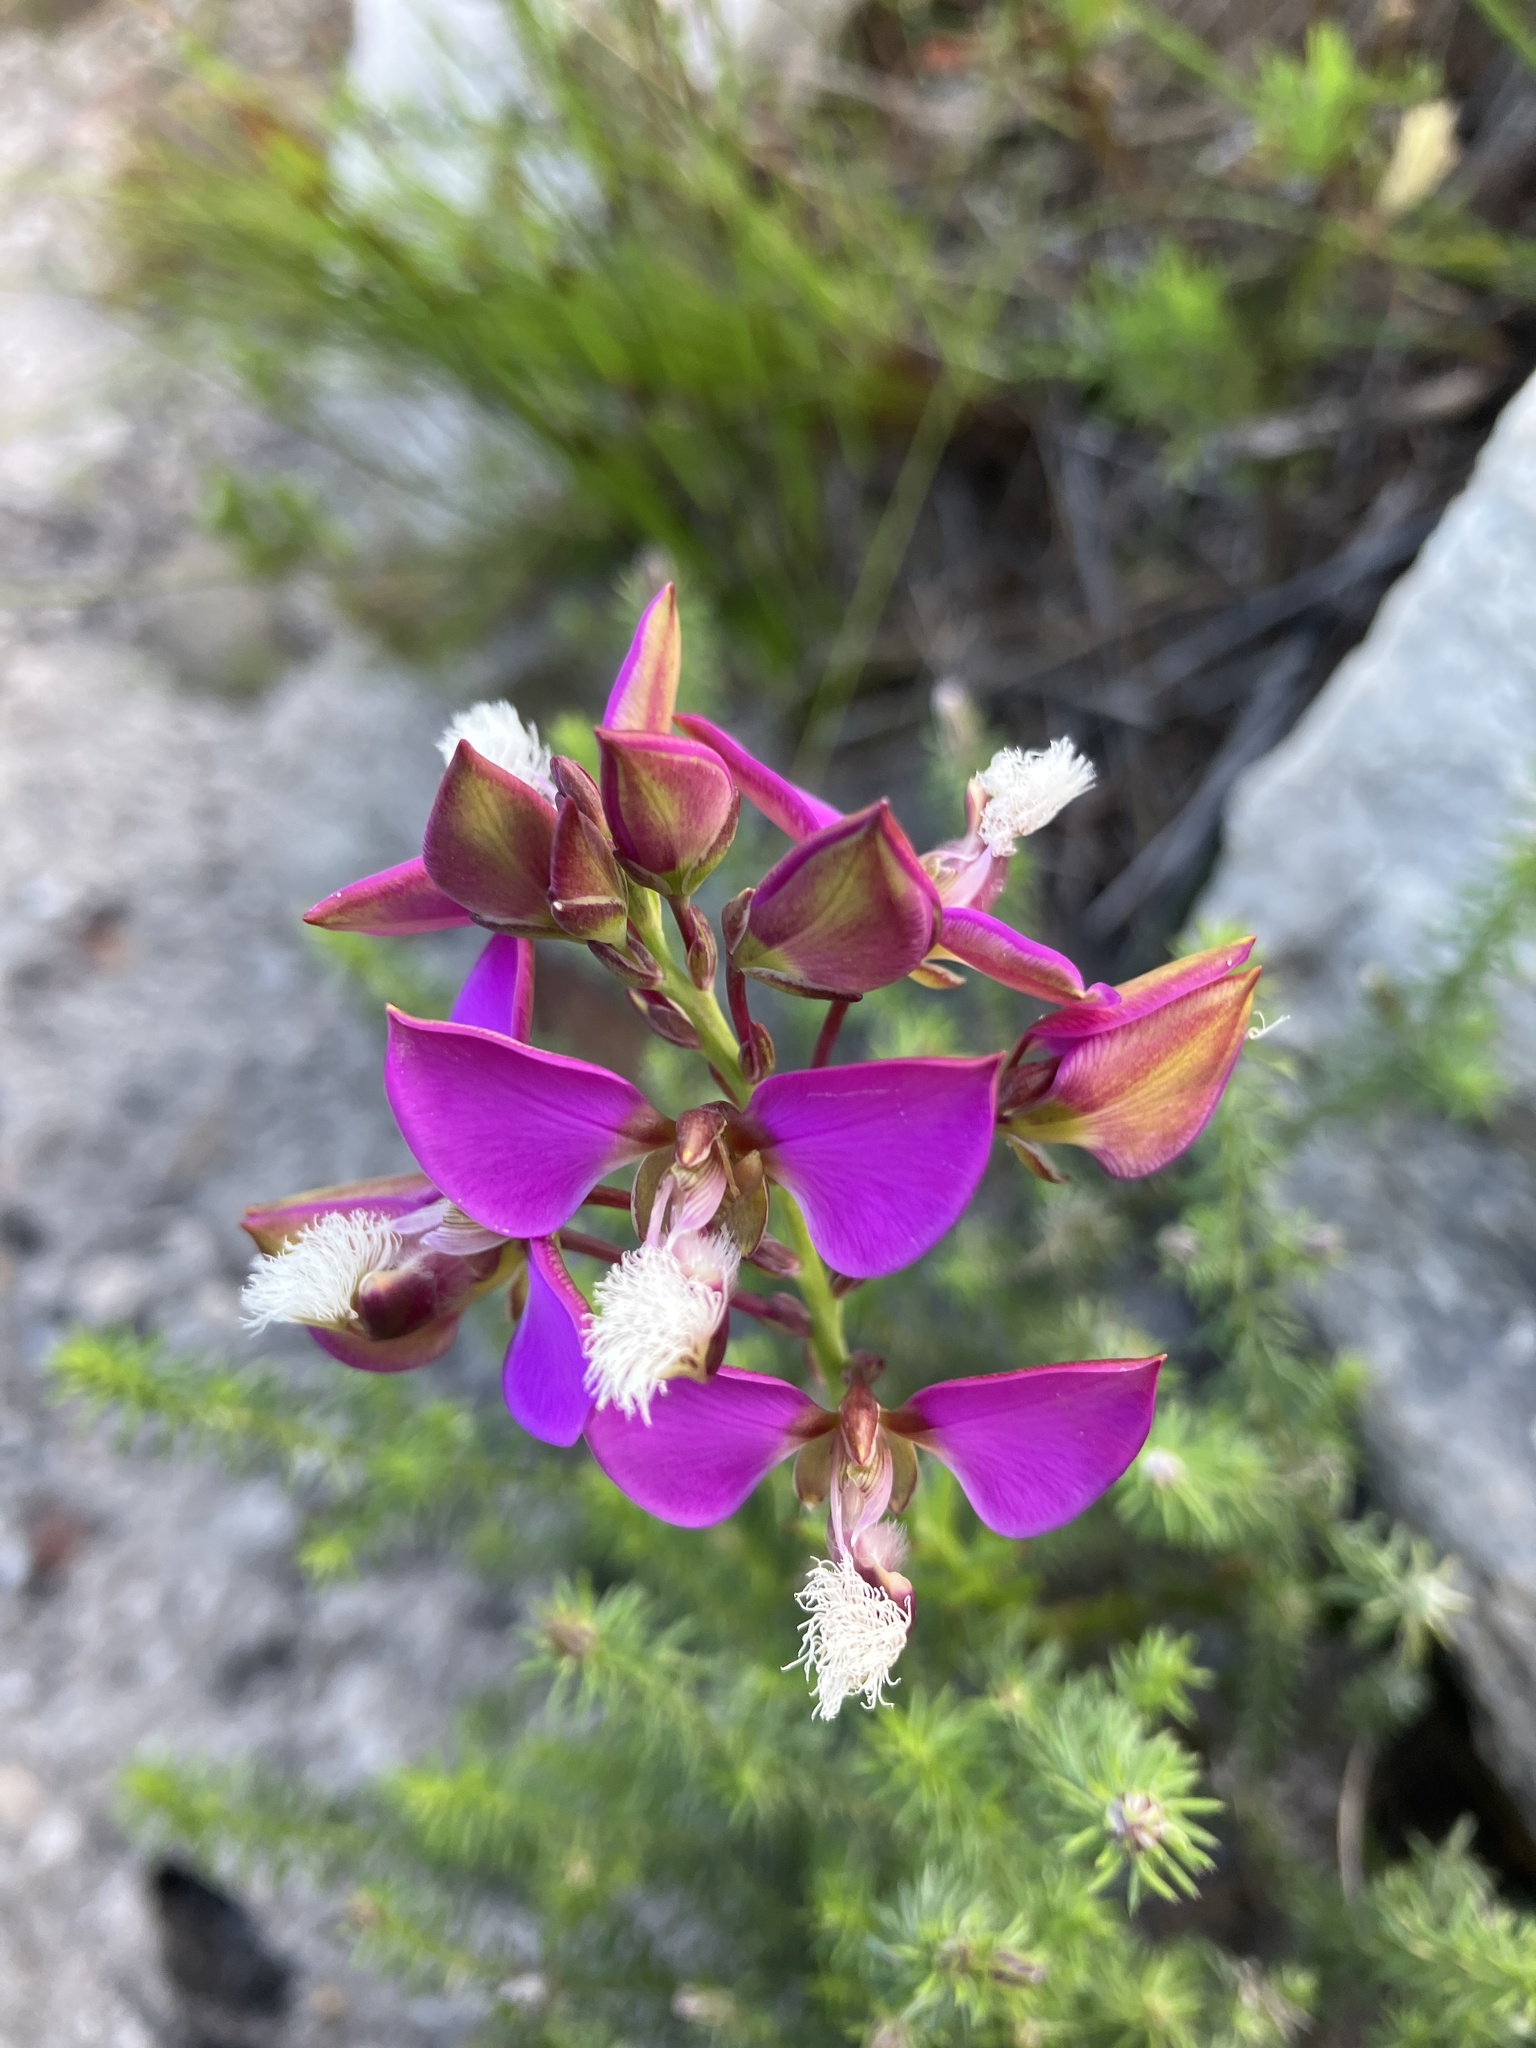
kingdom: Plantae
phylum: Tracheophyta
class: Magnoliopsida
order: Fabales
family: Polygalaceae
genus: Polygala
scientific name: Polygala bracteolata
